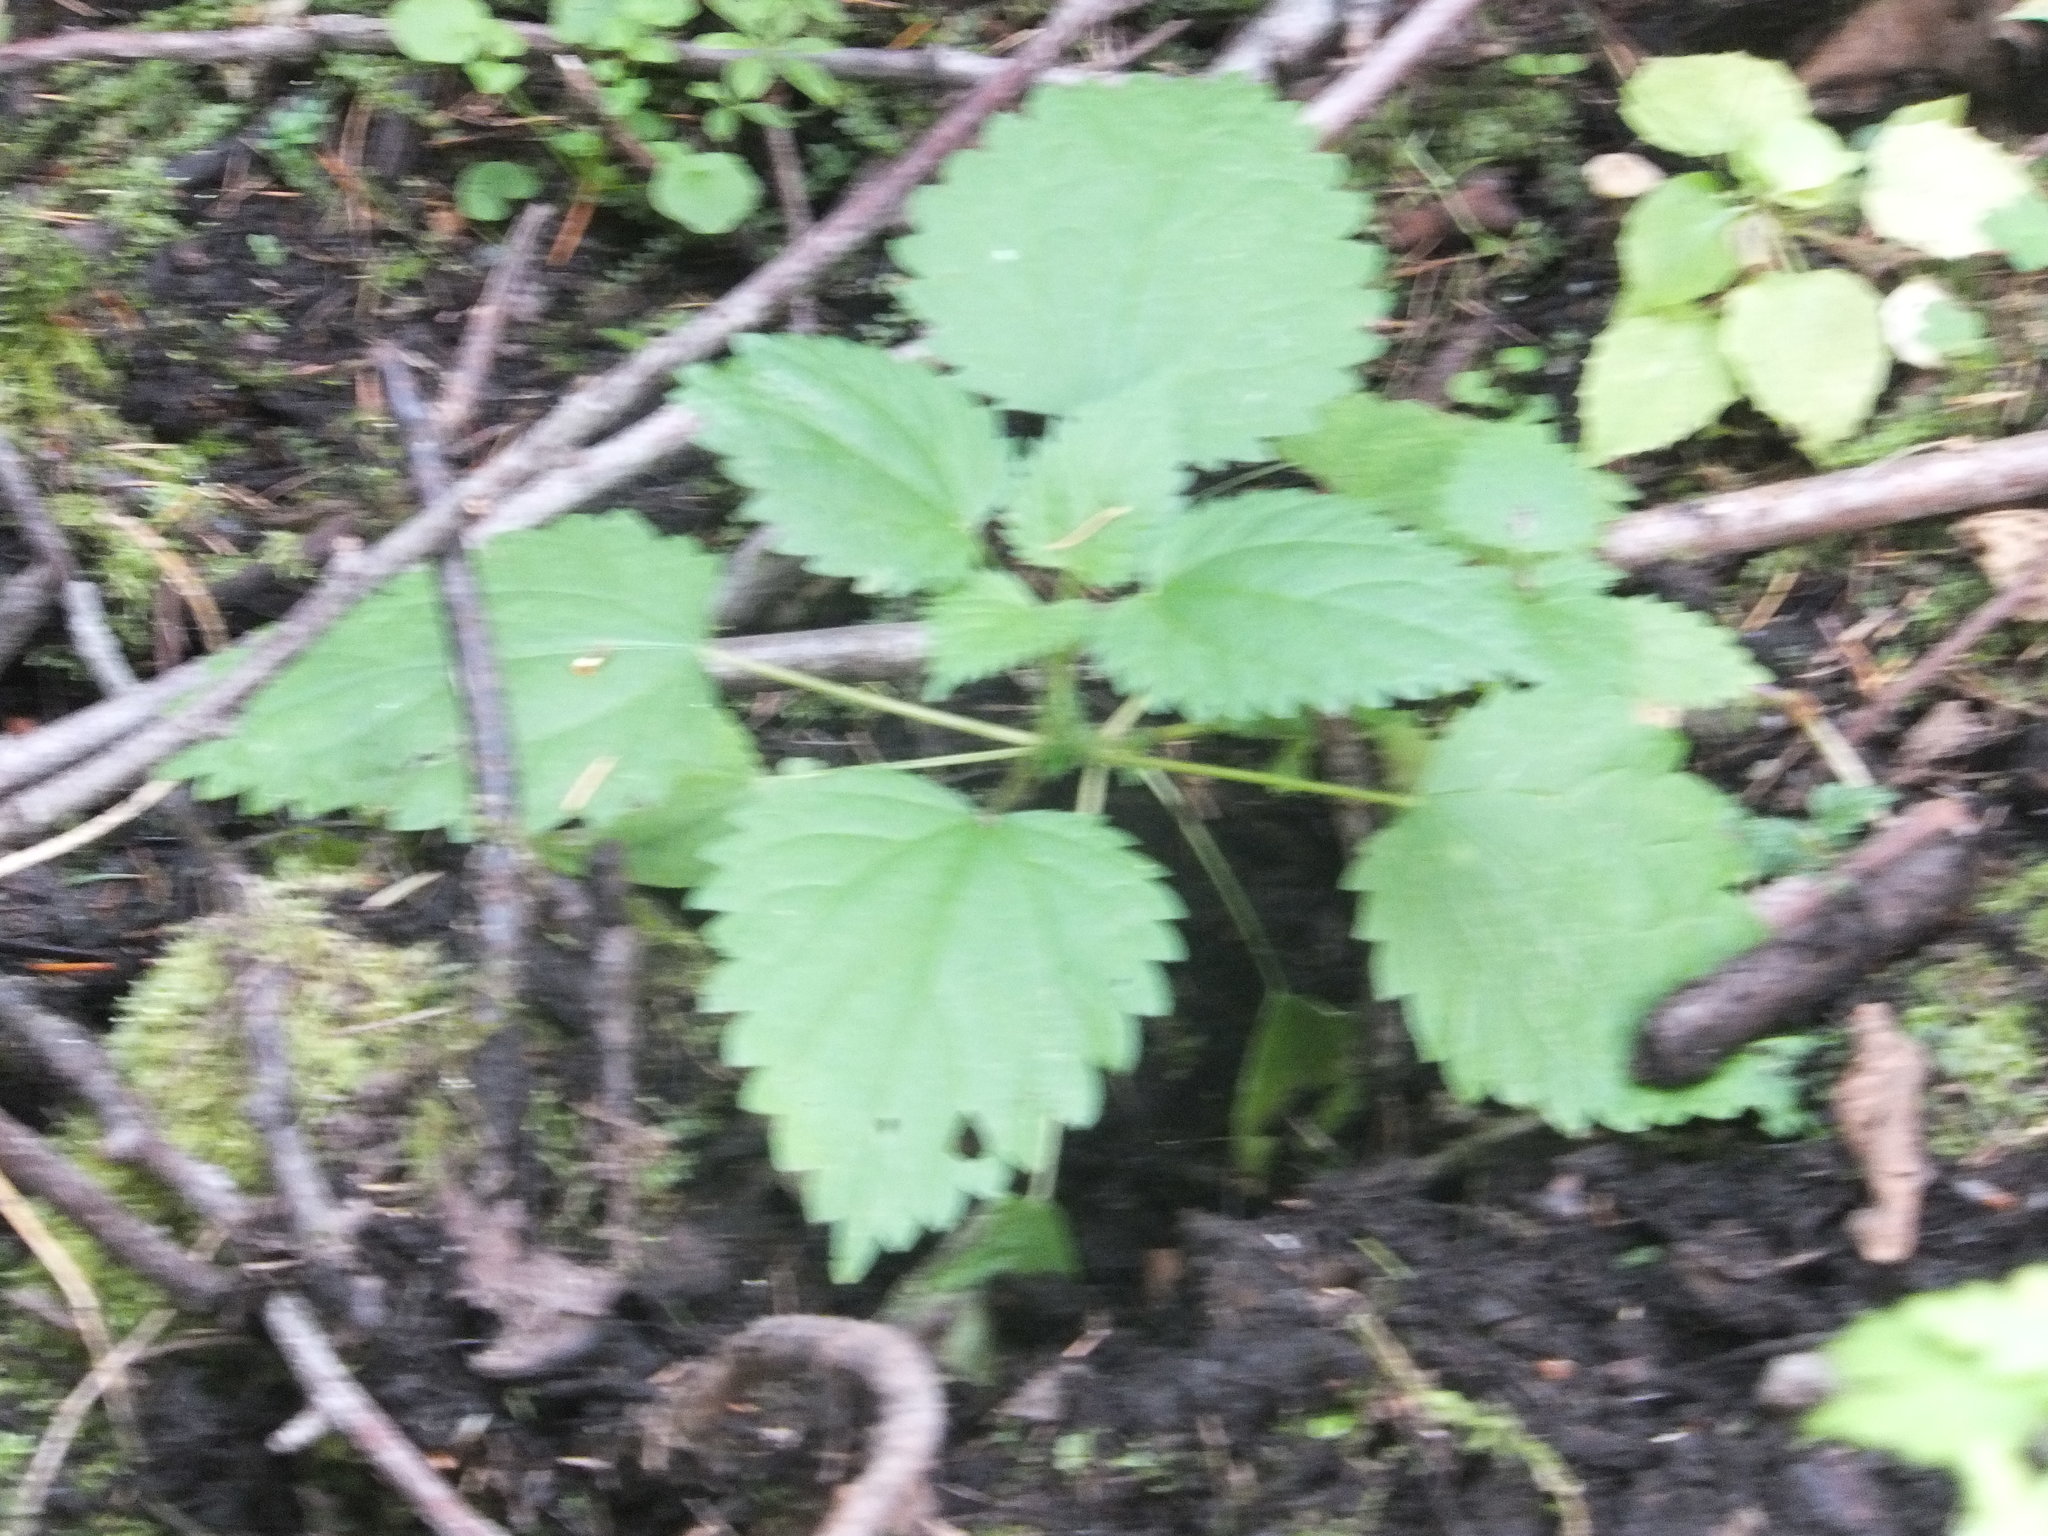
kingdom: Plantae
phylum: Tracheophyta
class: Magnoliopsida
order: Rosales
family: Urticaceae
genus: Urtica
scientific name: Urtica dioica
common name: Common nettle
